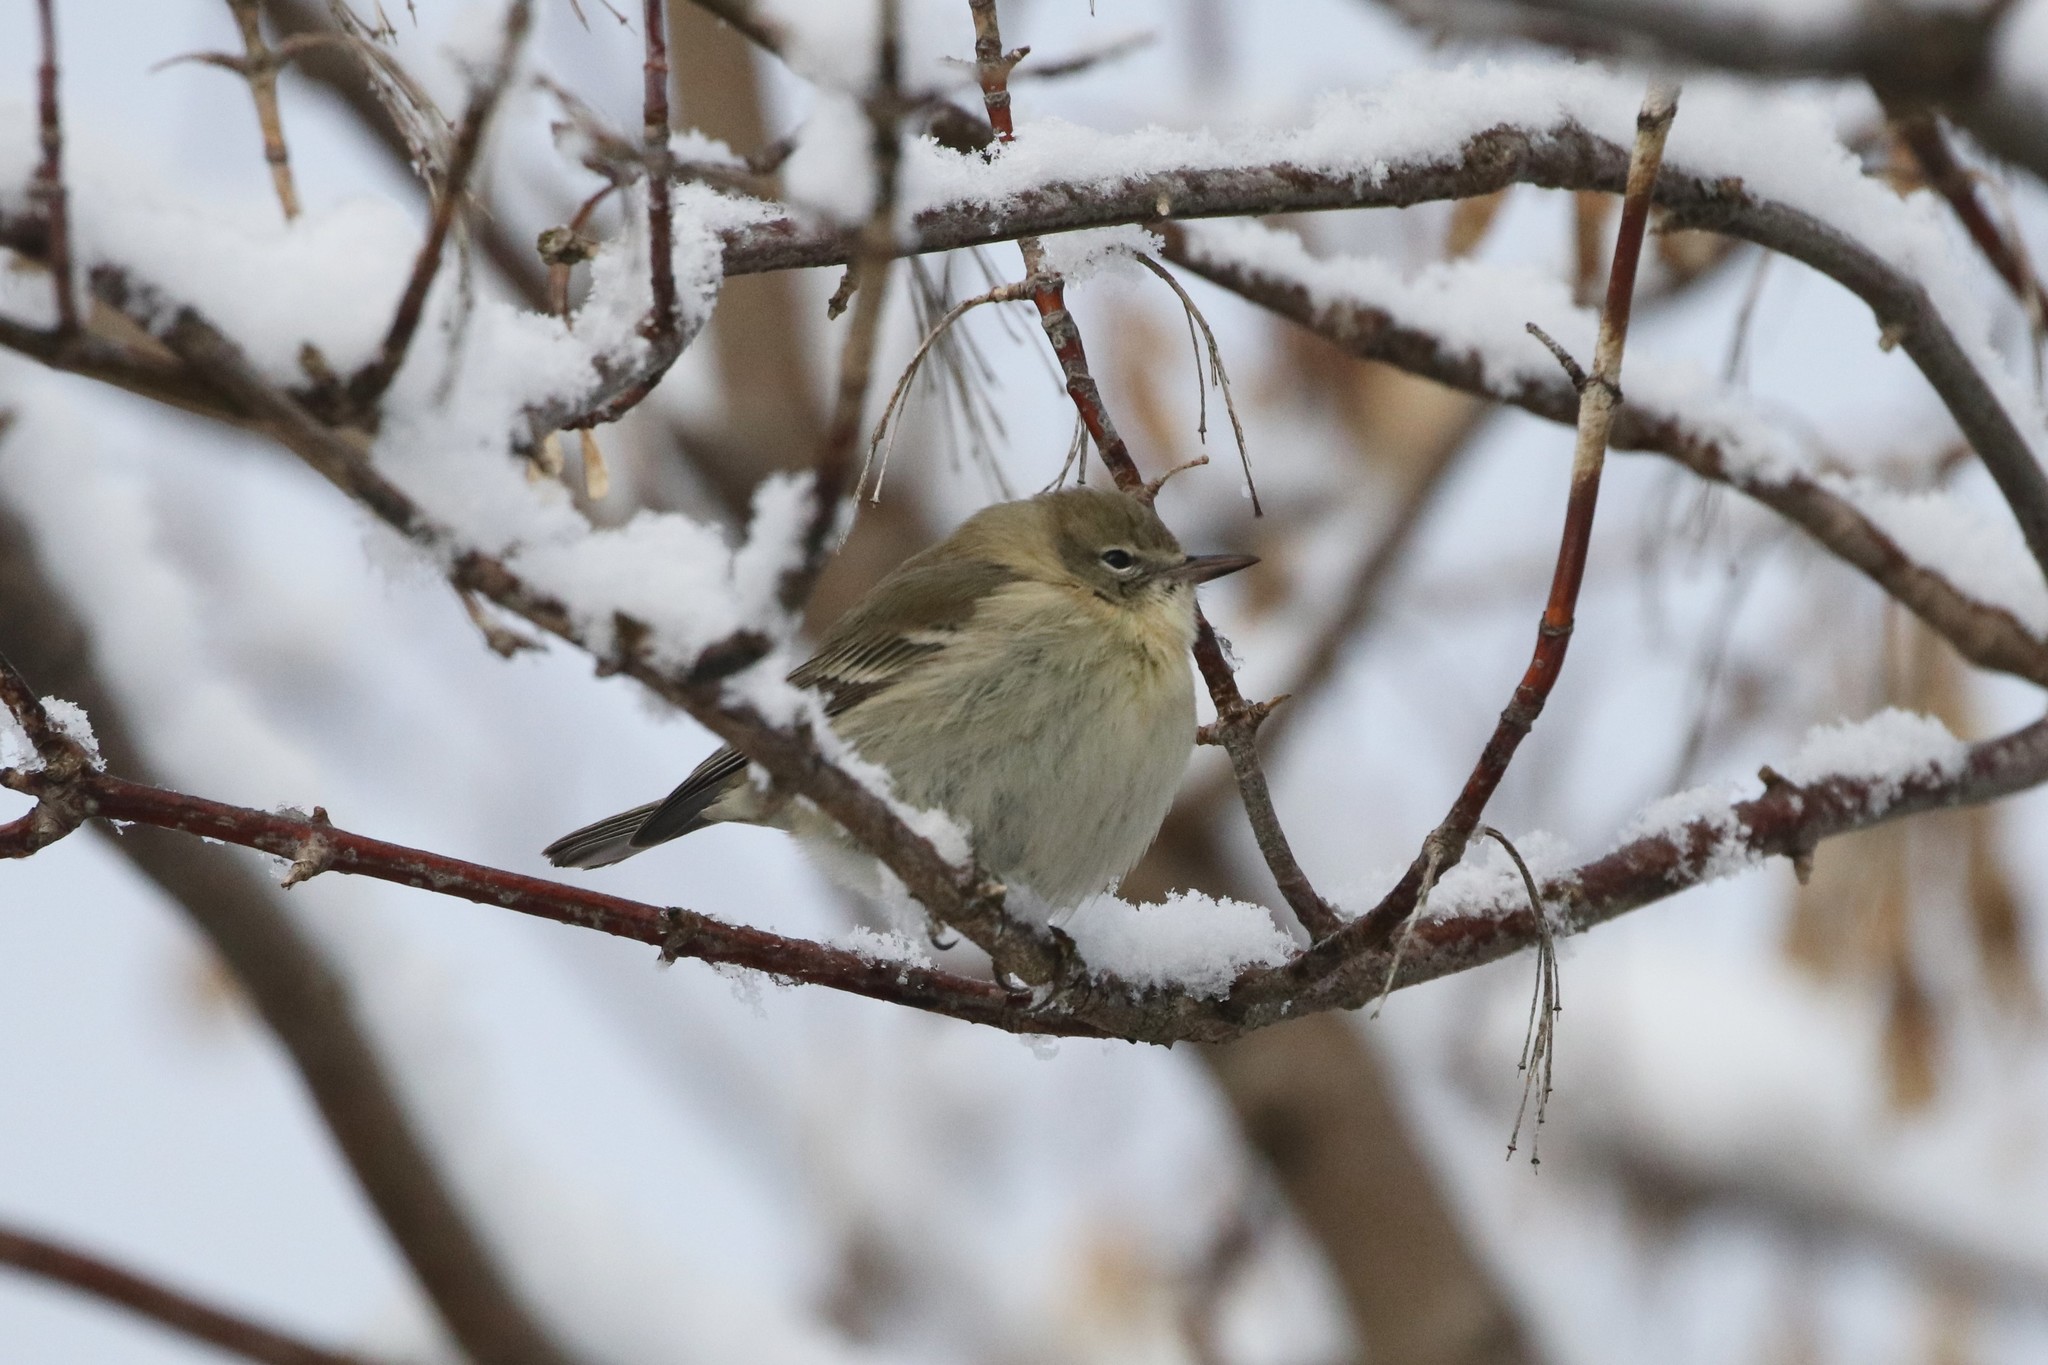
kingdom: Animalia
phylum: Chordata
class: Aves
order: Passeriformes
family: Parulidae
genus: Setophaga
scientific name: Setophaga pinus
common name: Pine warbler
